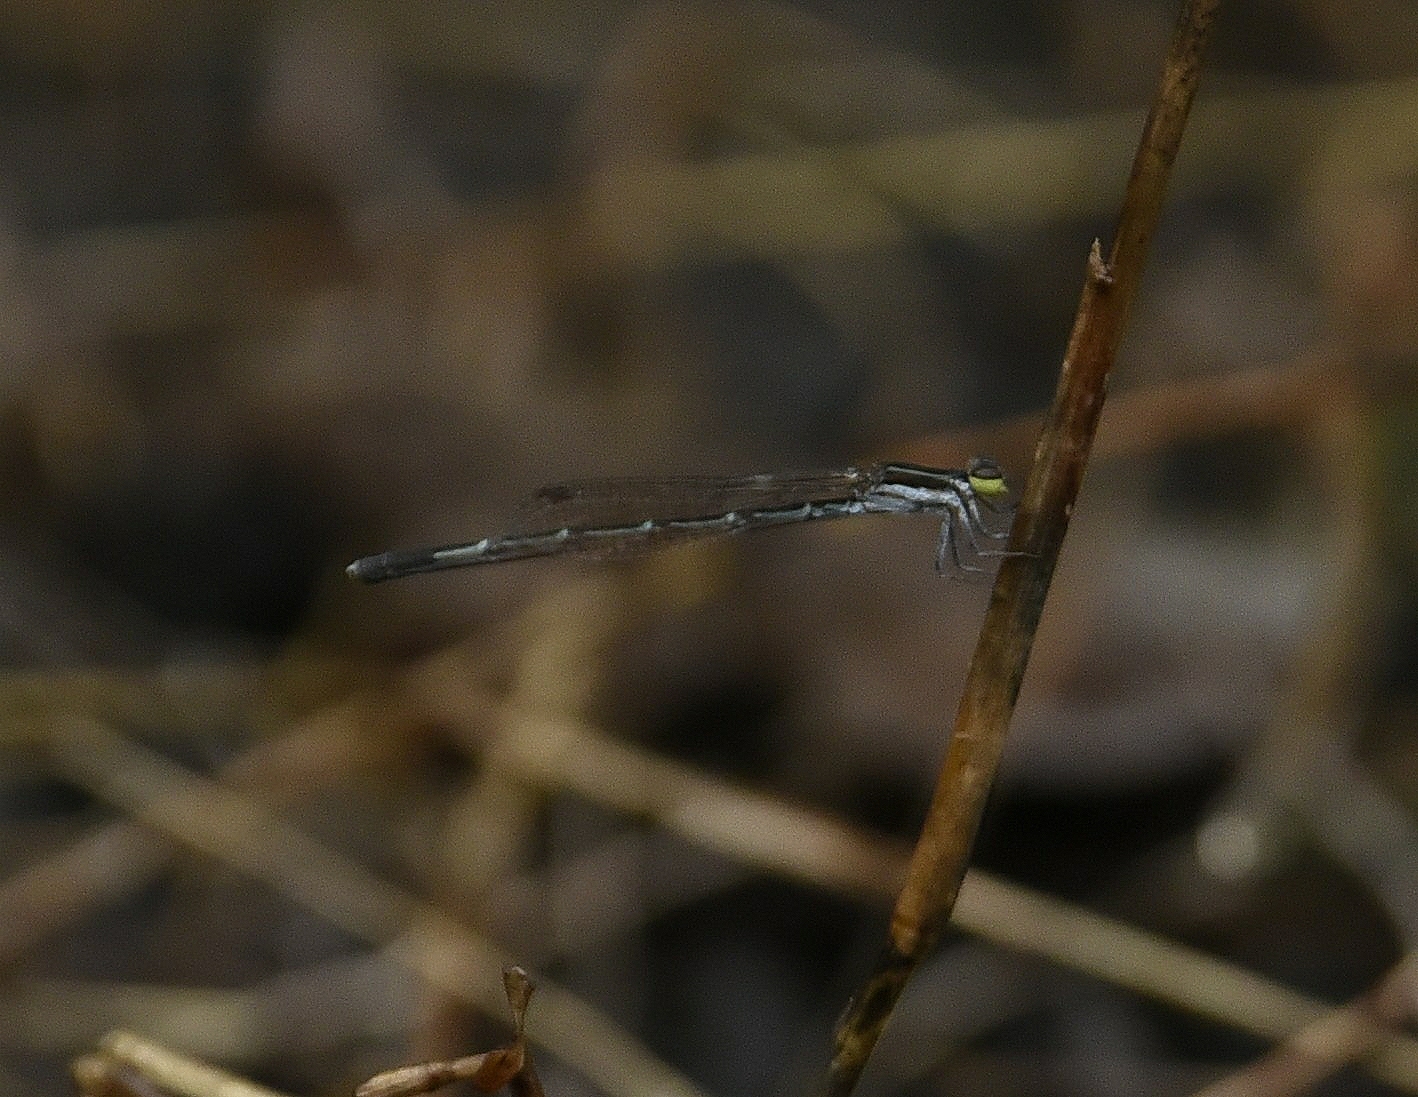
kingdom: Animalia
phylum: Arthropoda
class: Insecta
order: Odonata
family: Coenagrionidae
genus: Agriocnemis
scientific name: Agriocnemis splendidissima
